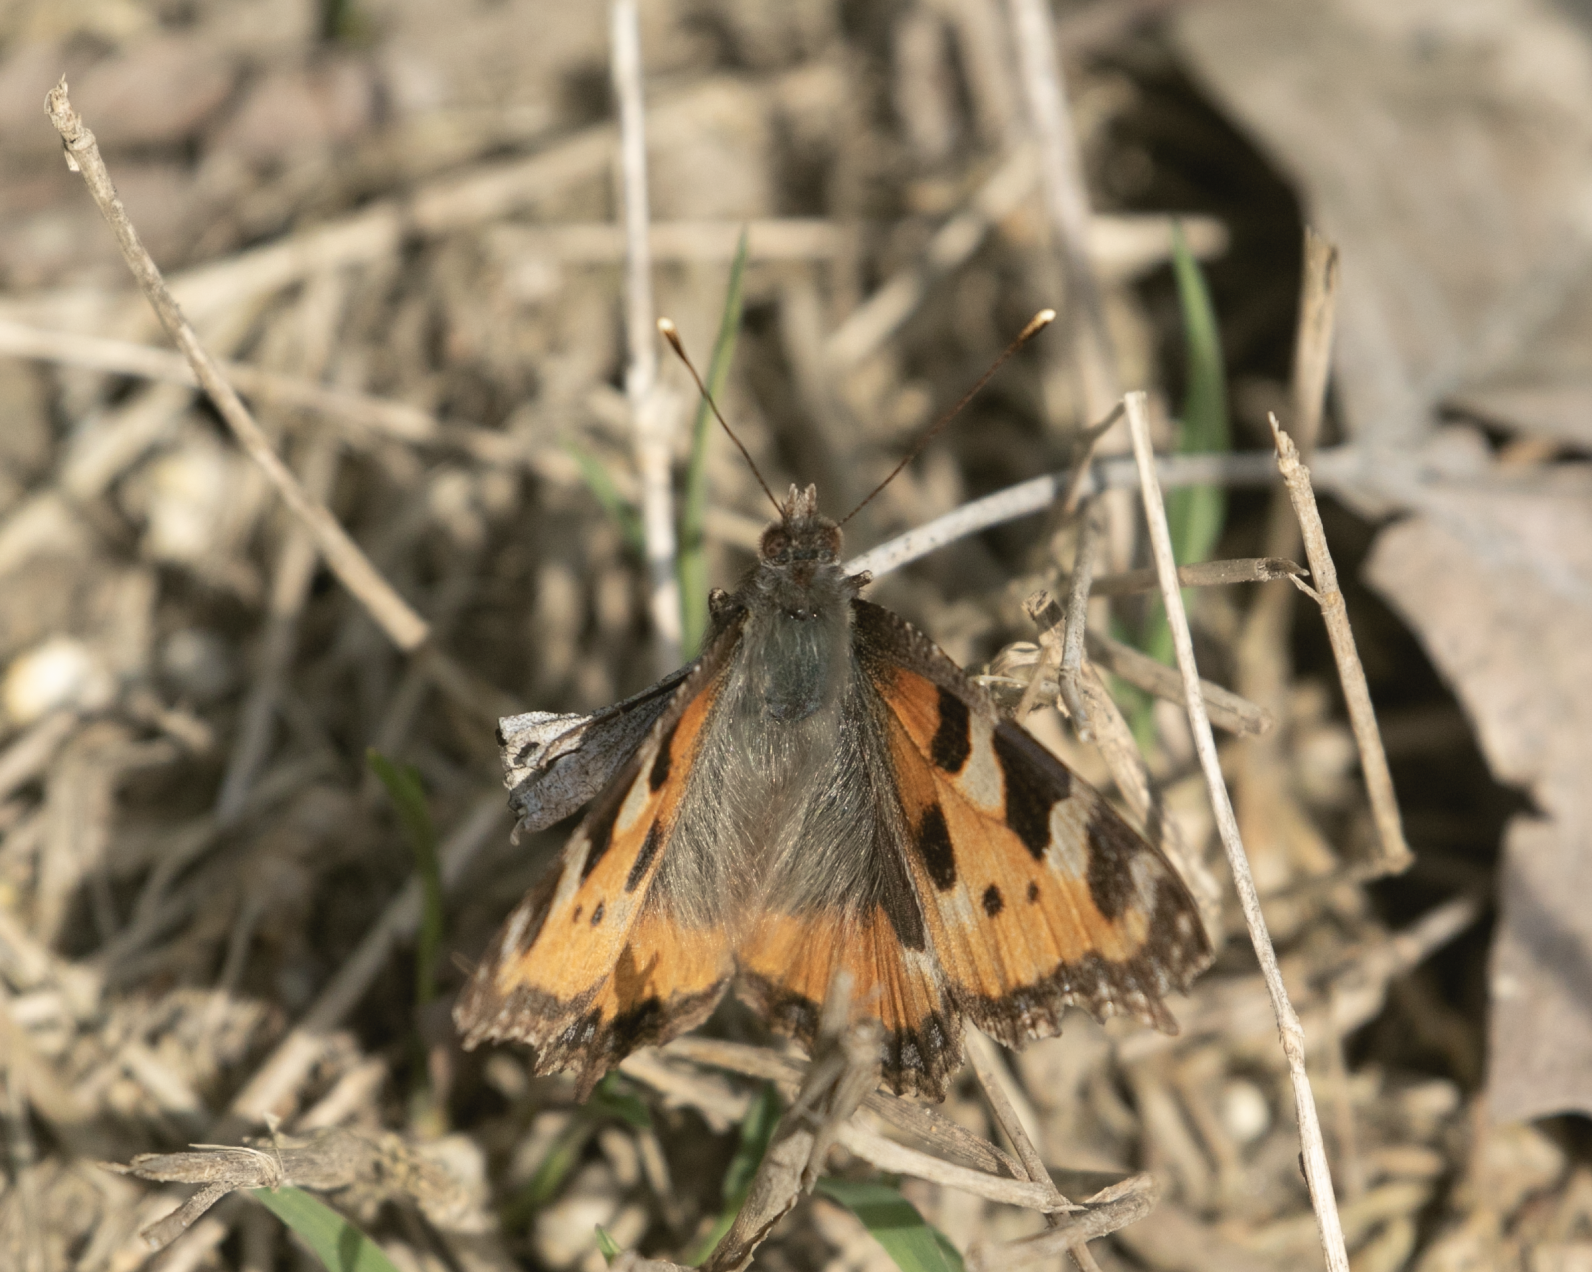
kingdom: Animalia
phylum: Arthropoda
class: Insecta
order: Lepidoptera
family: Nymphalidae
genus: Aglais
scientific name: Aglais urticae
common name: Small tortoiseshell
